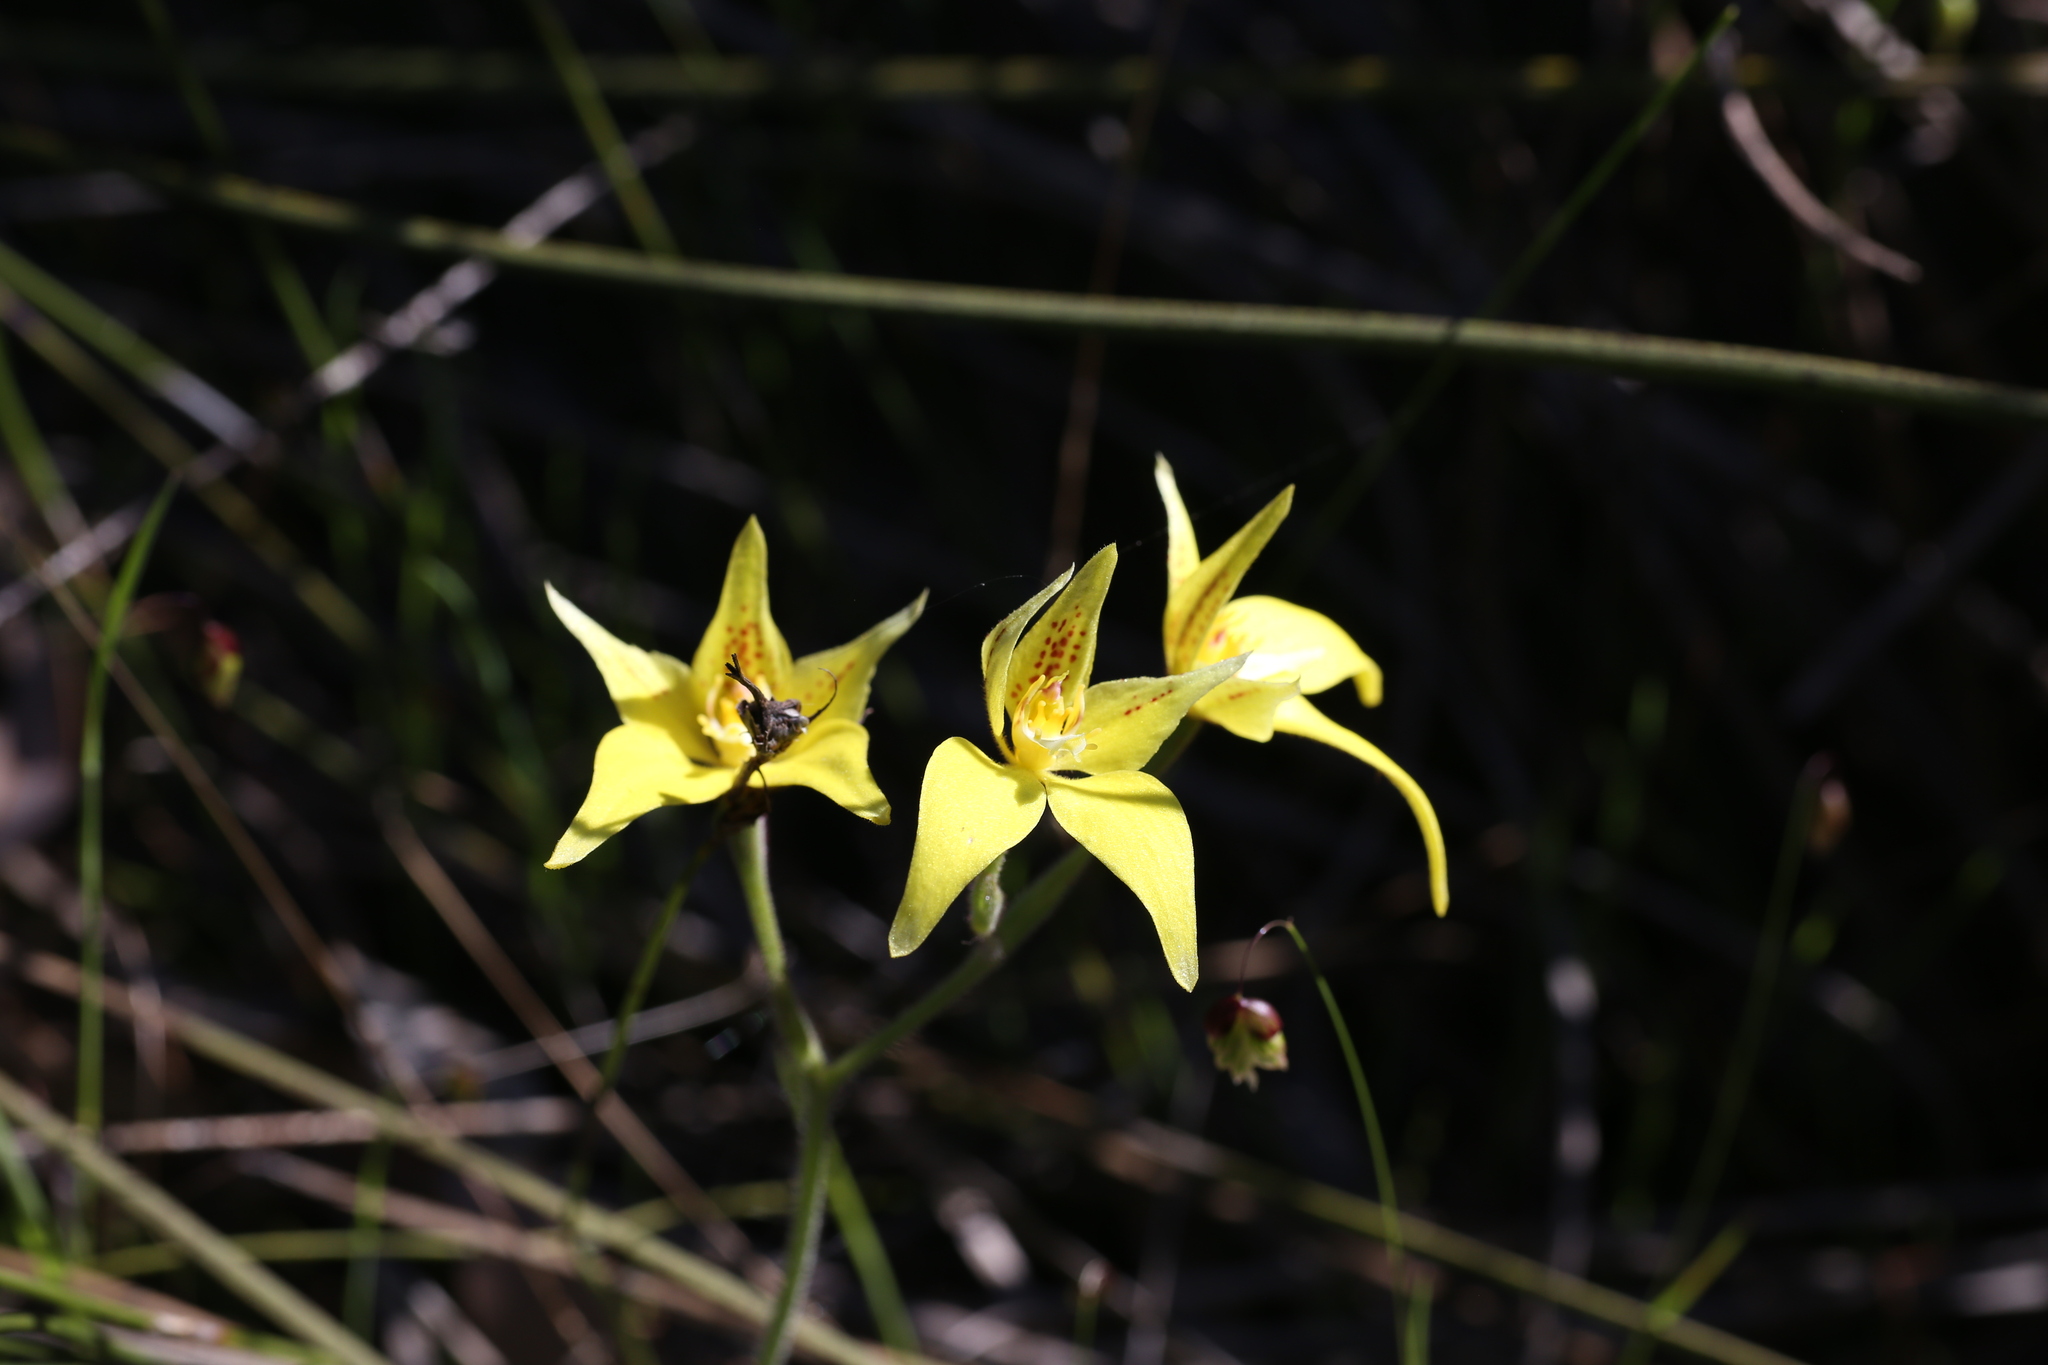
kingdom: Plantae
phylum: Tracheophyta
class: Liliopsida
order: Asparagales
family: Orchidaceae
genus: Caladenia
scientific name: Caladenia flava
